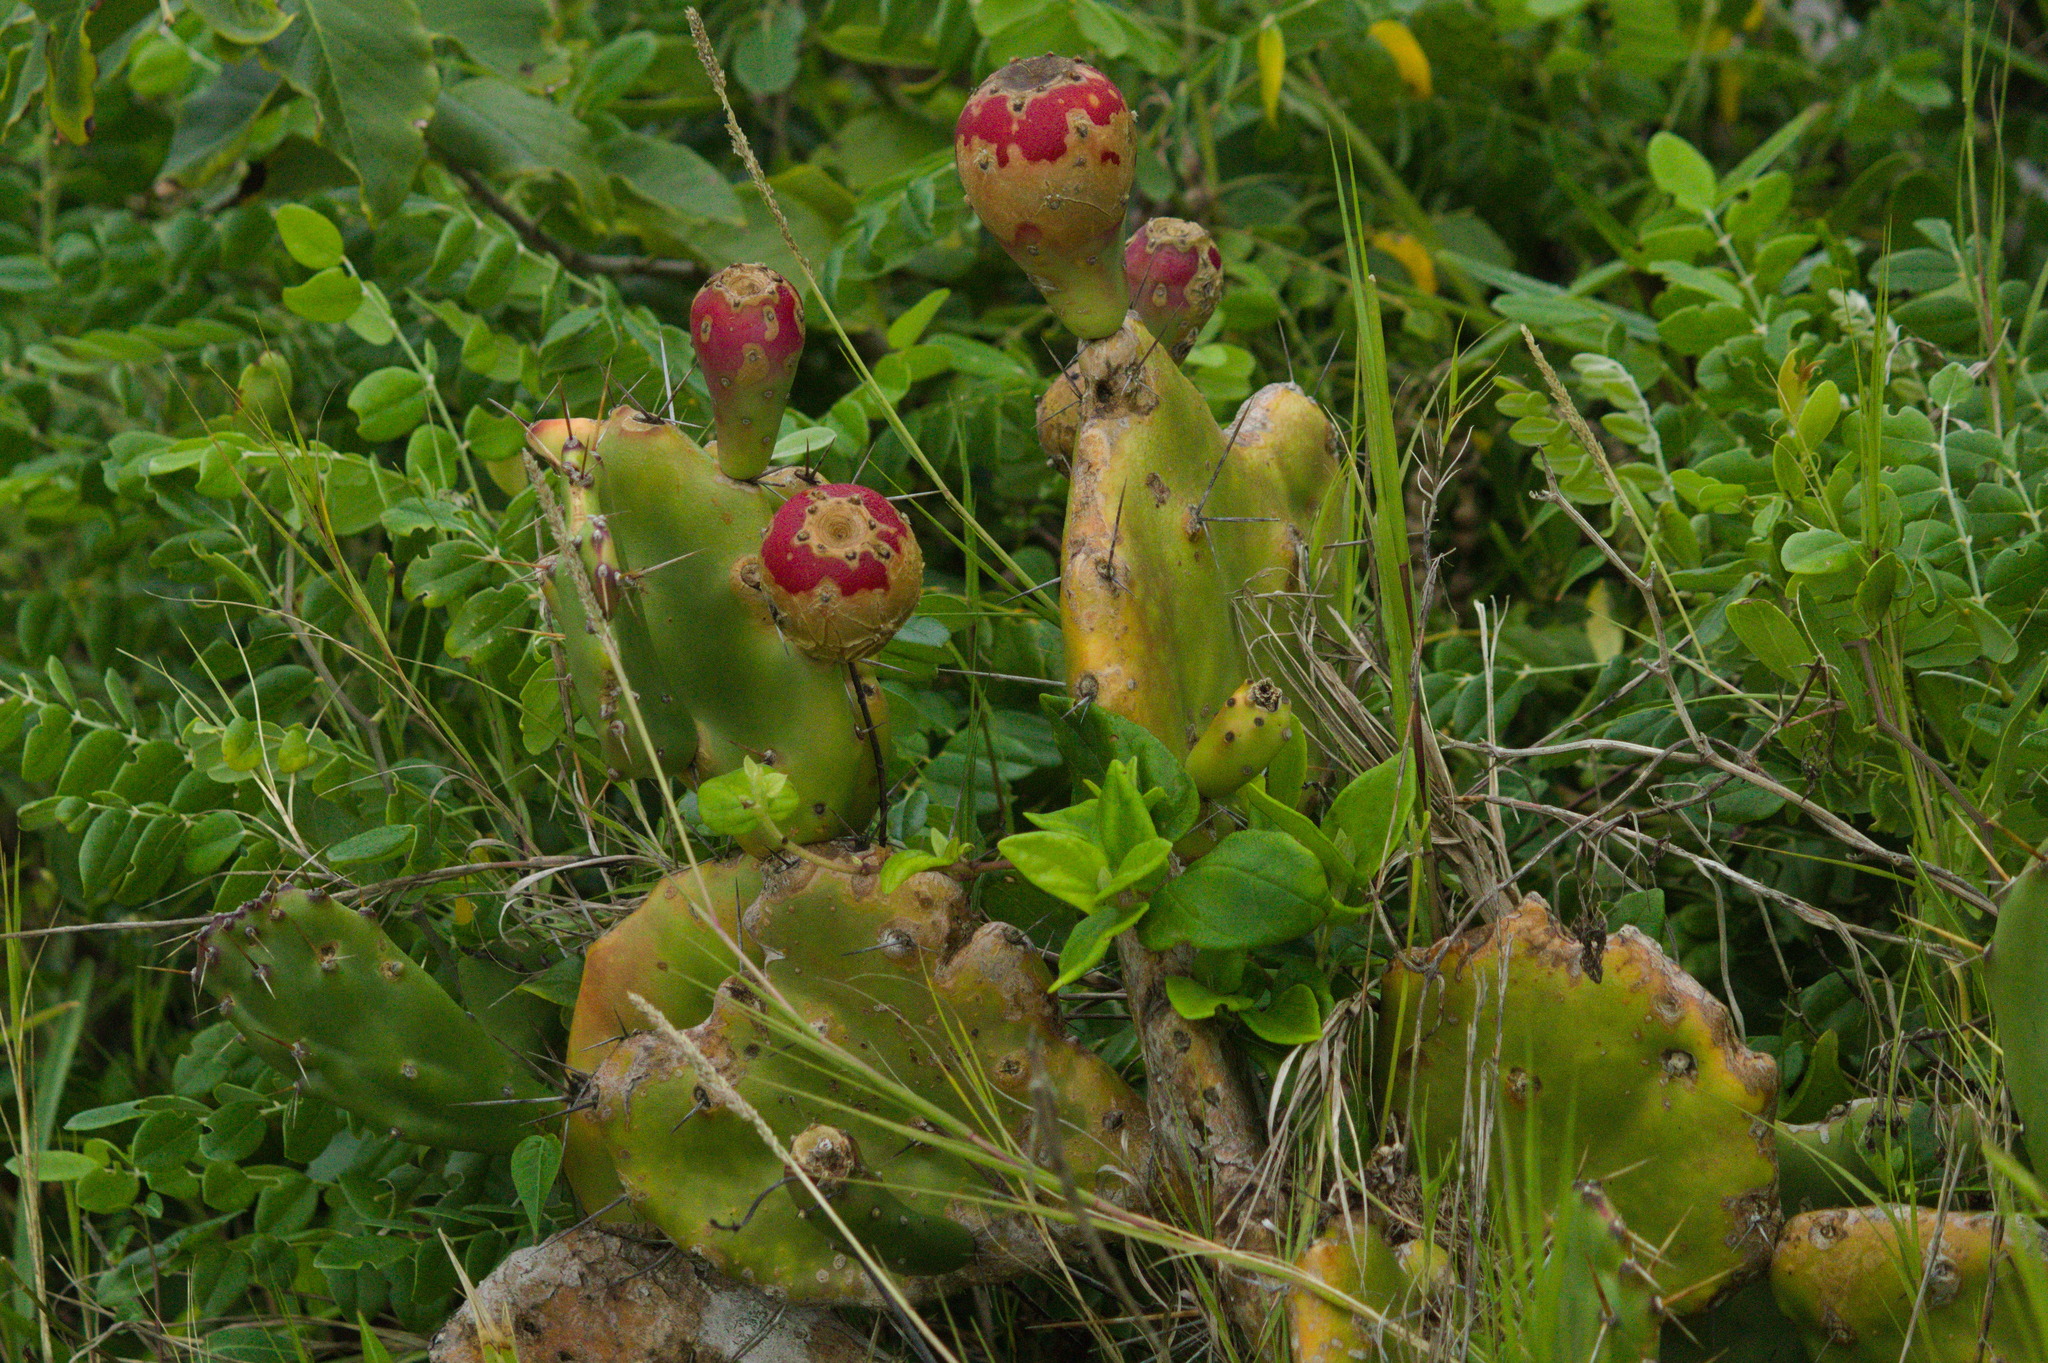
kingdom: Plantae
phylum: Tracheophyta
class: Magnoliopsida
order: Caryophyllales
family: Cactaceae
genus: Opuntia
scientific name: Opuntia monacantha
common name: Common pricklypear
